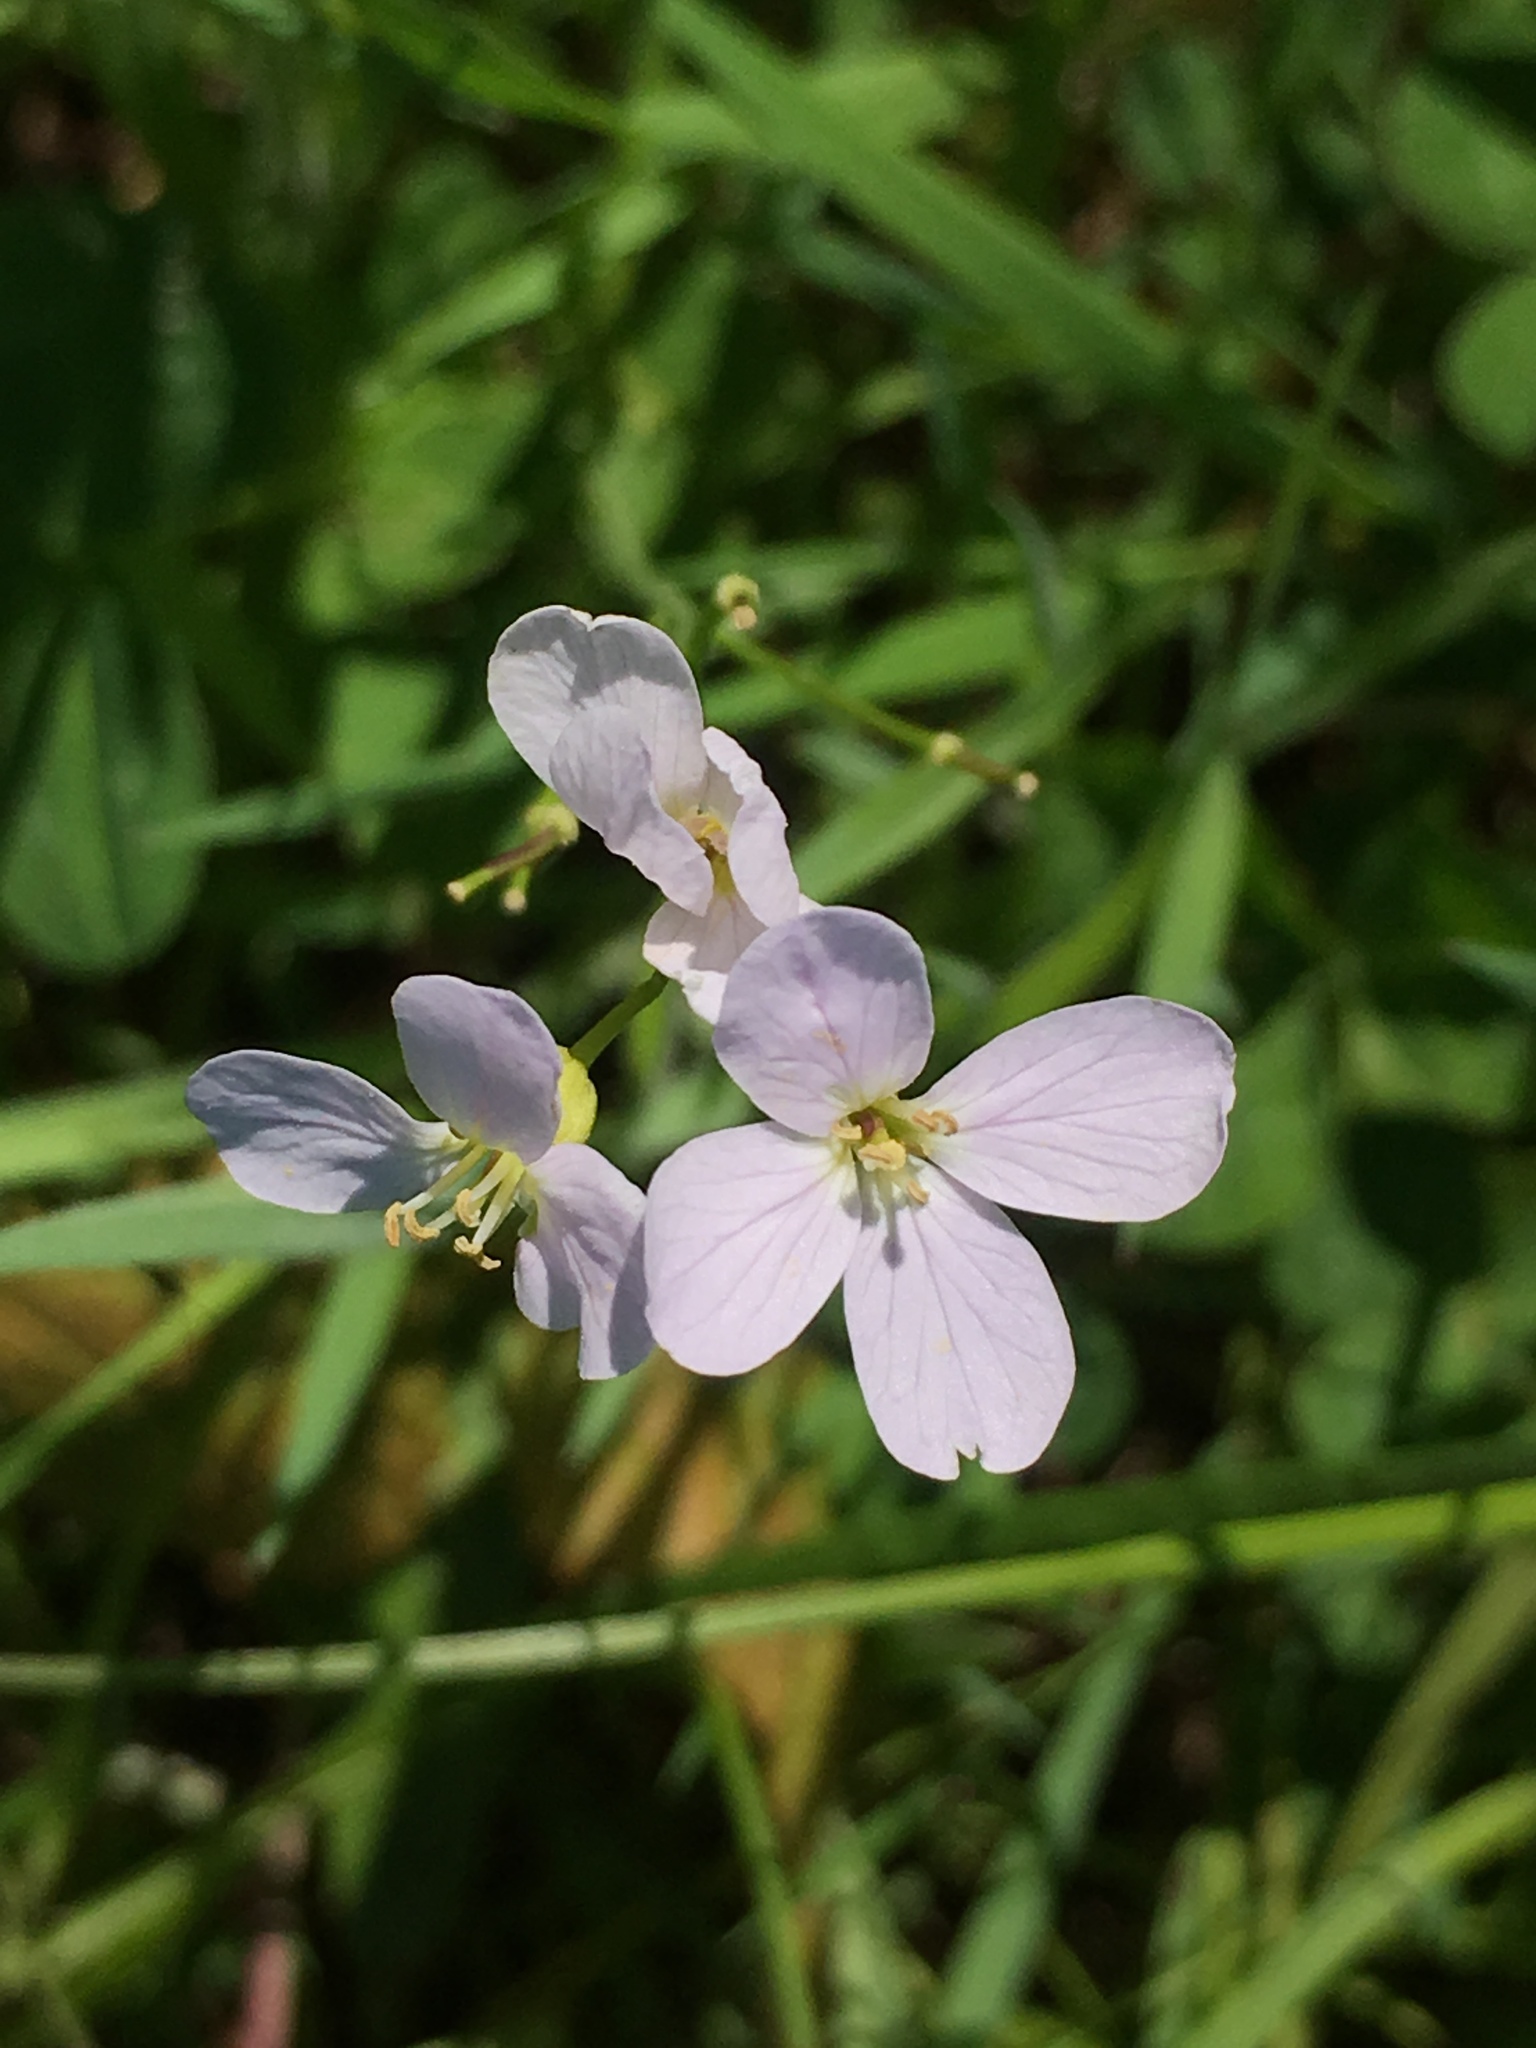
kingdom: Plantae
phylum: Tracheophyta
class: Magnoliopsida
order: Brassicales
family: Brassicaceae
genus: Cardamine
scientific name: Cardamine pratensis
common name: Cuckoo flower
